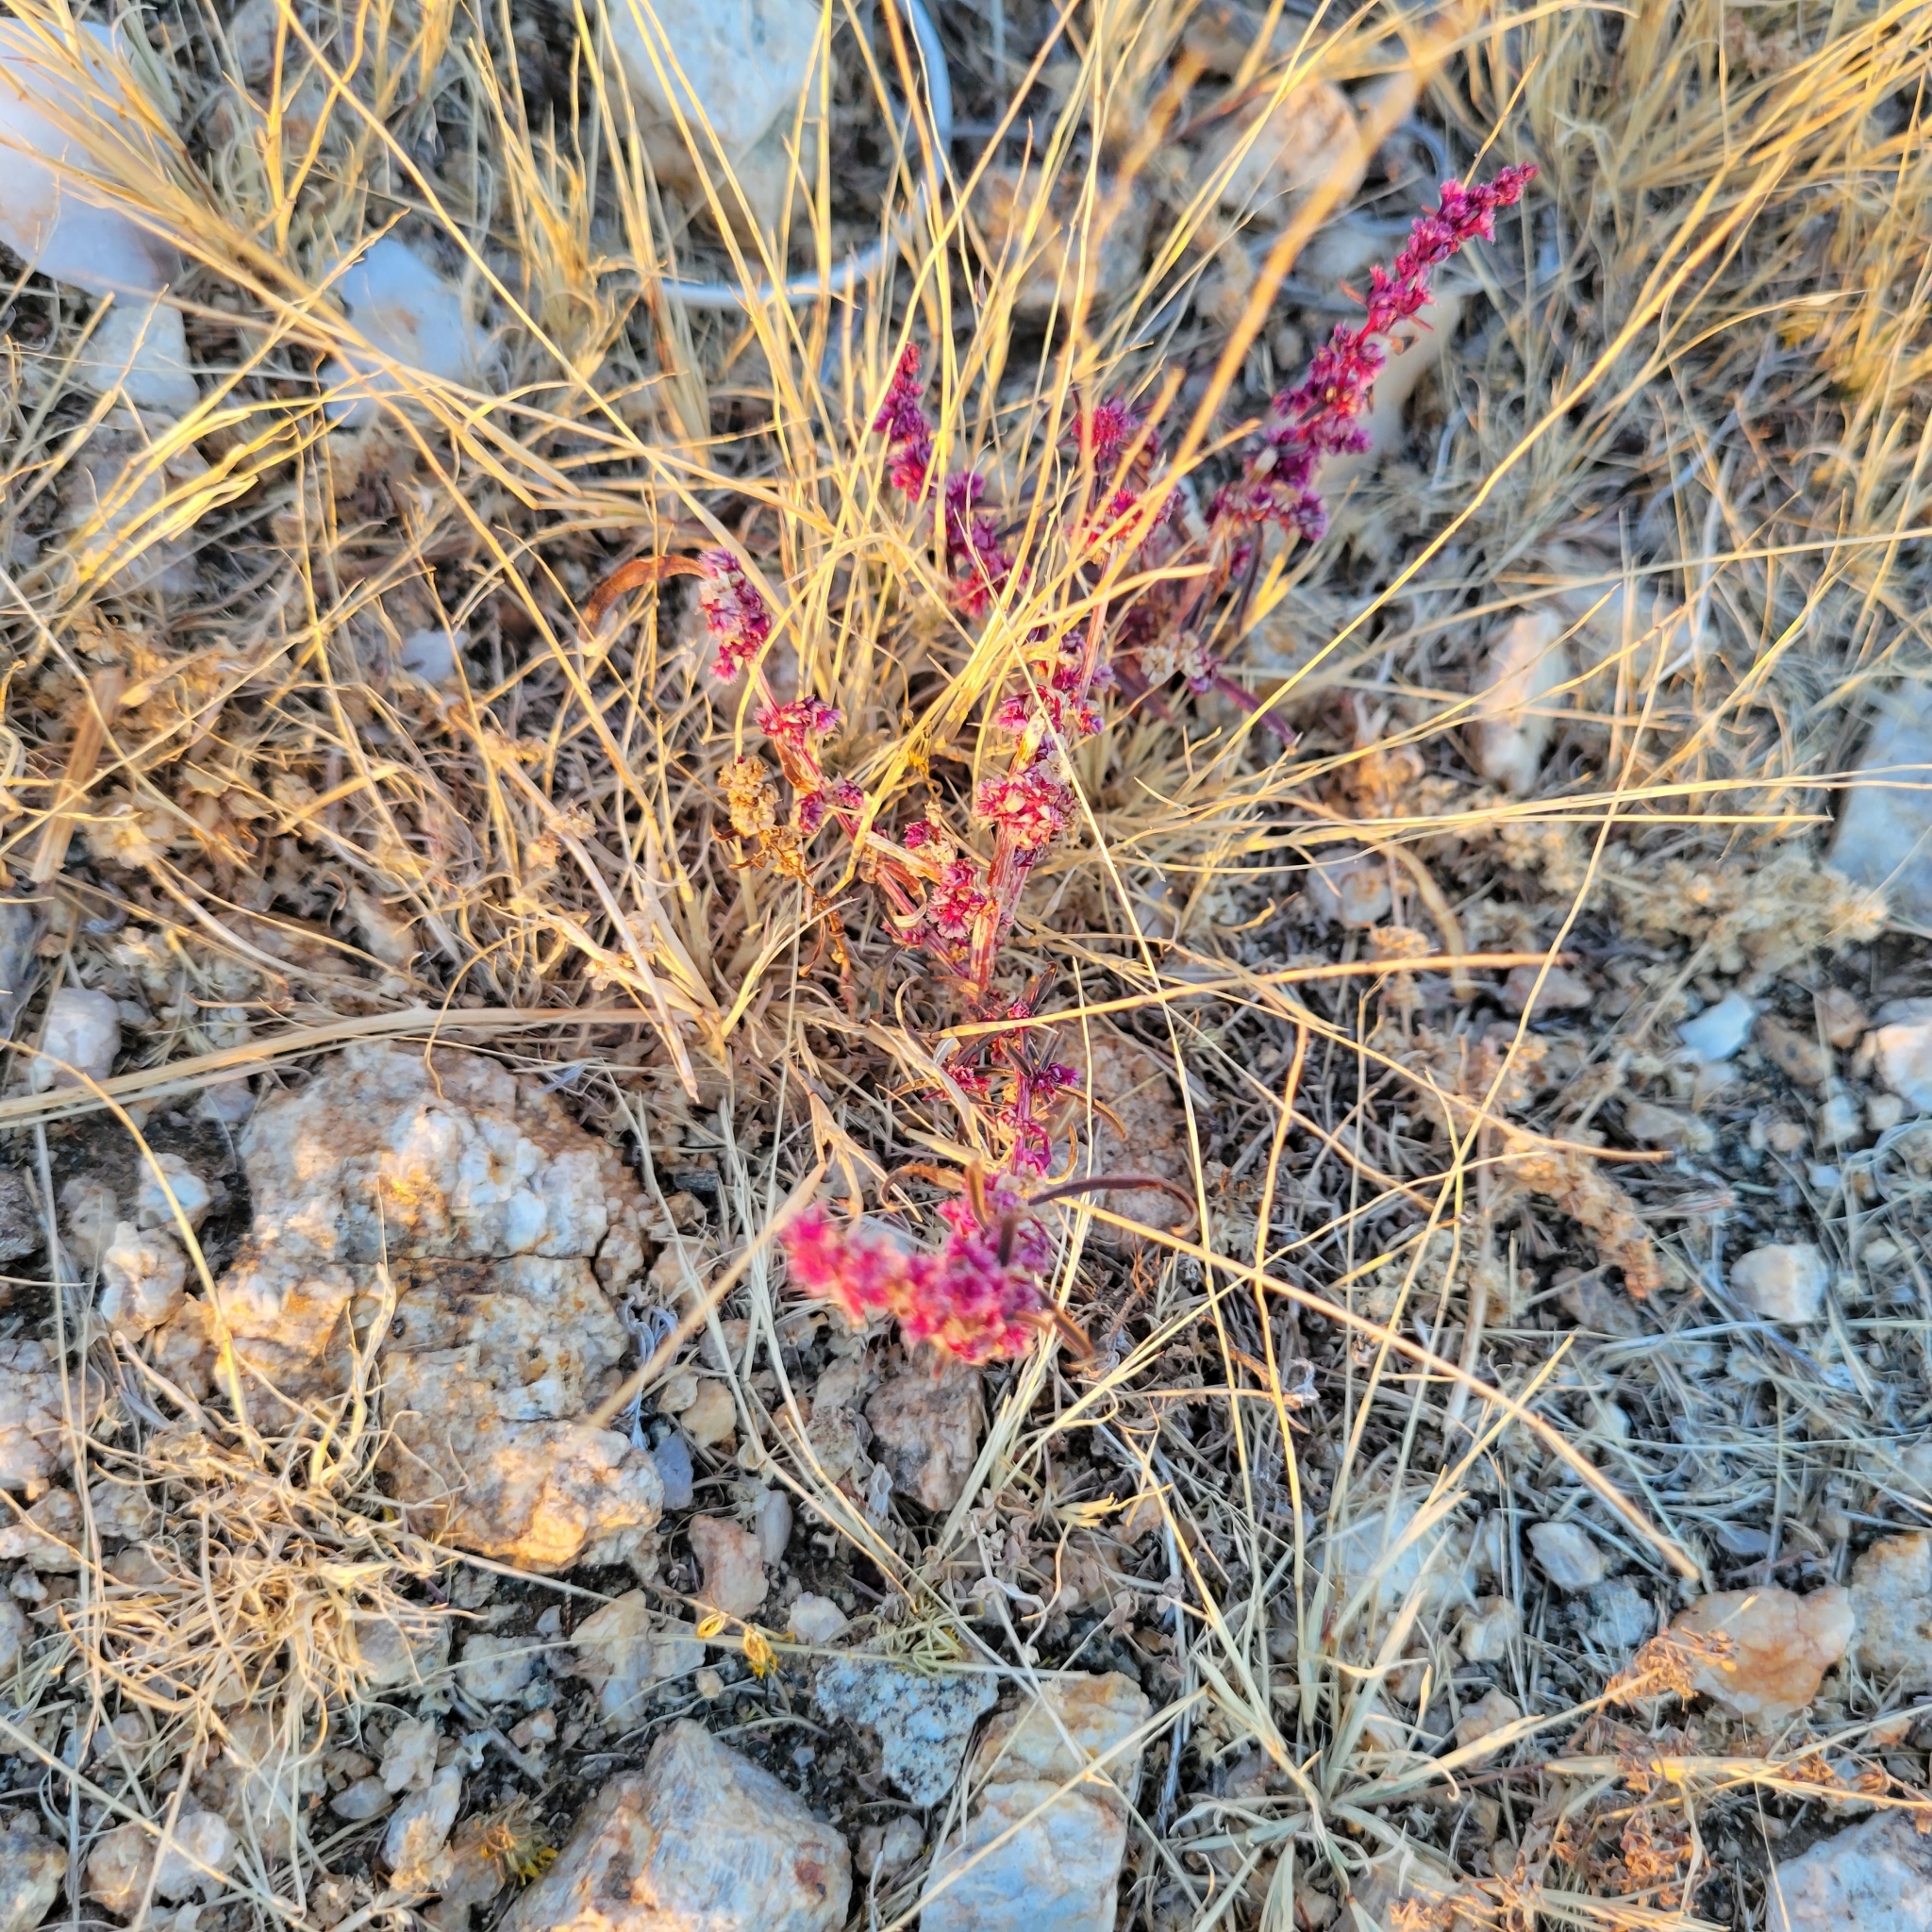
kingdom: Plantae
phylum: Tracheophyta
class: Magnoliopsida
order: Caryophyllales
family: Amaranthaceae
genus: Amaranthus
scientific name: Amaranthus fimbriatus
